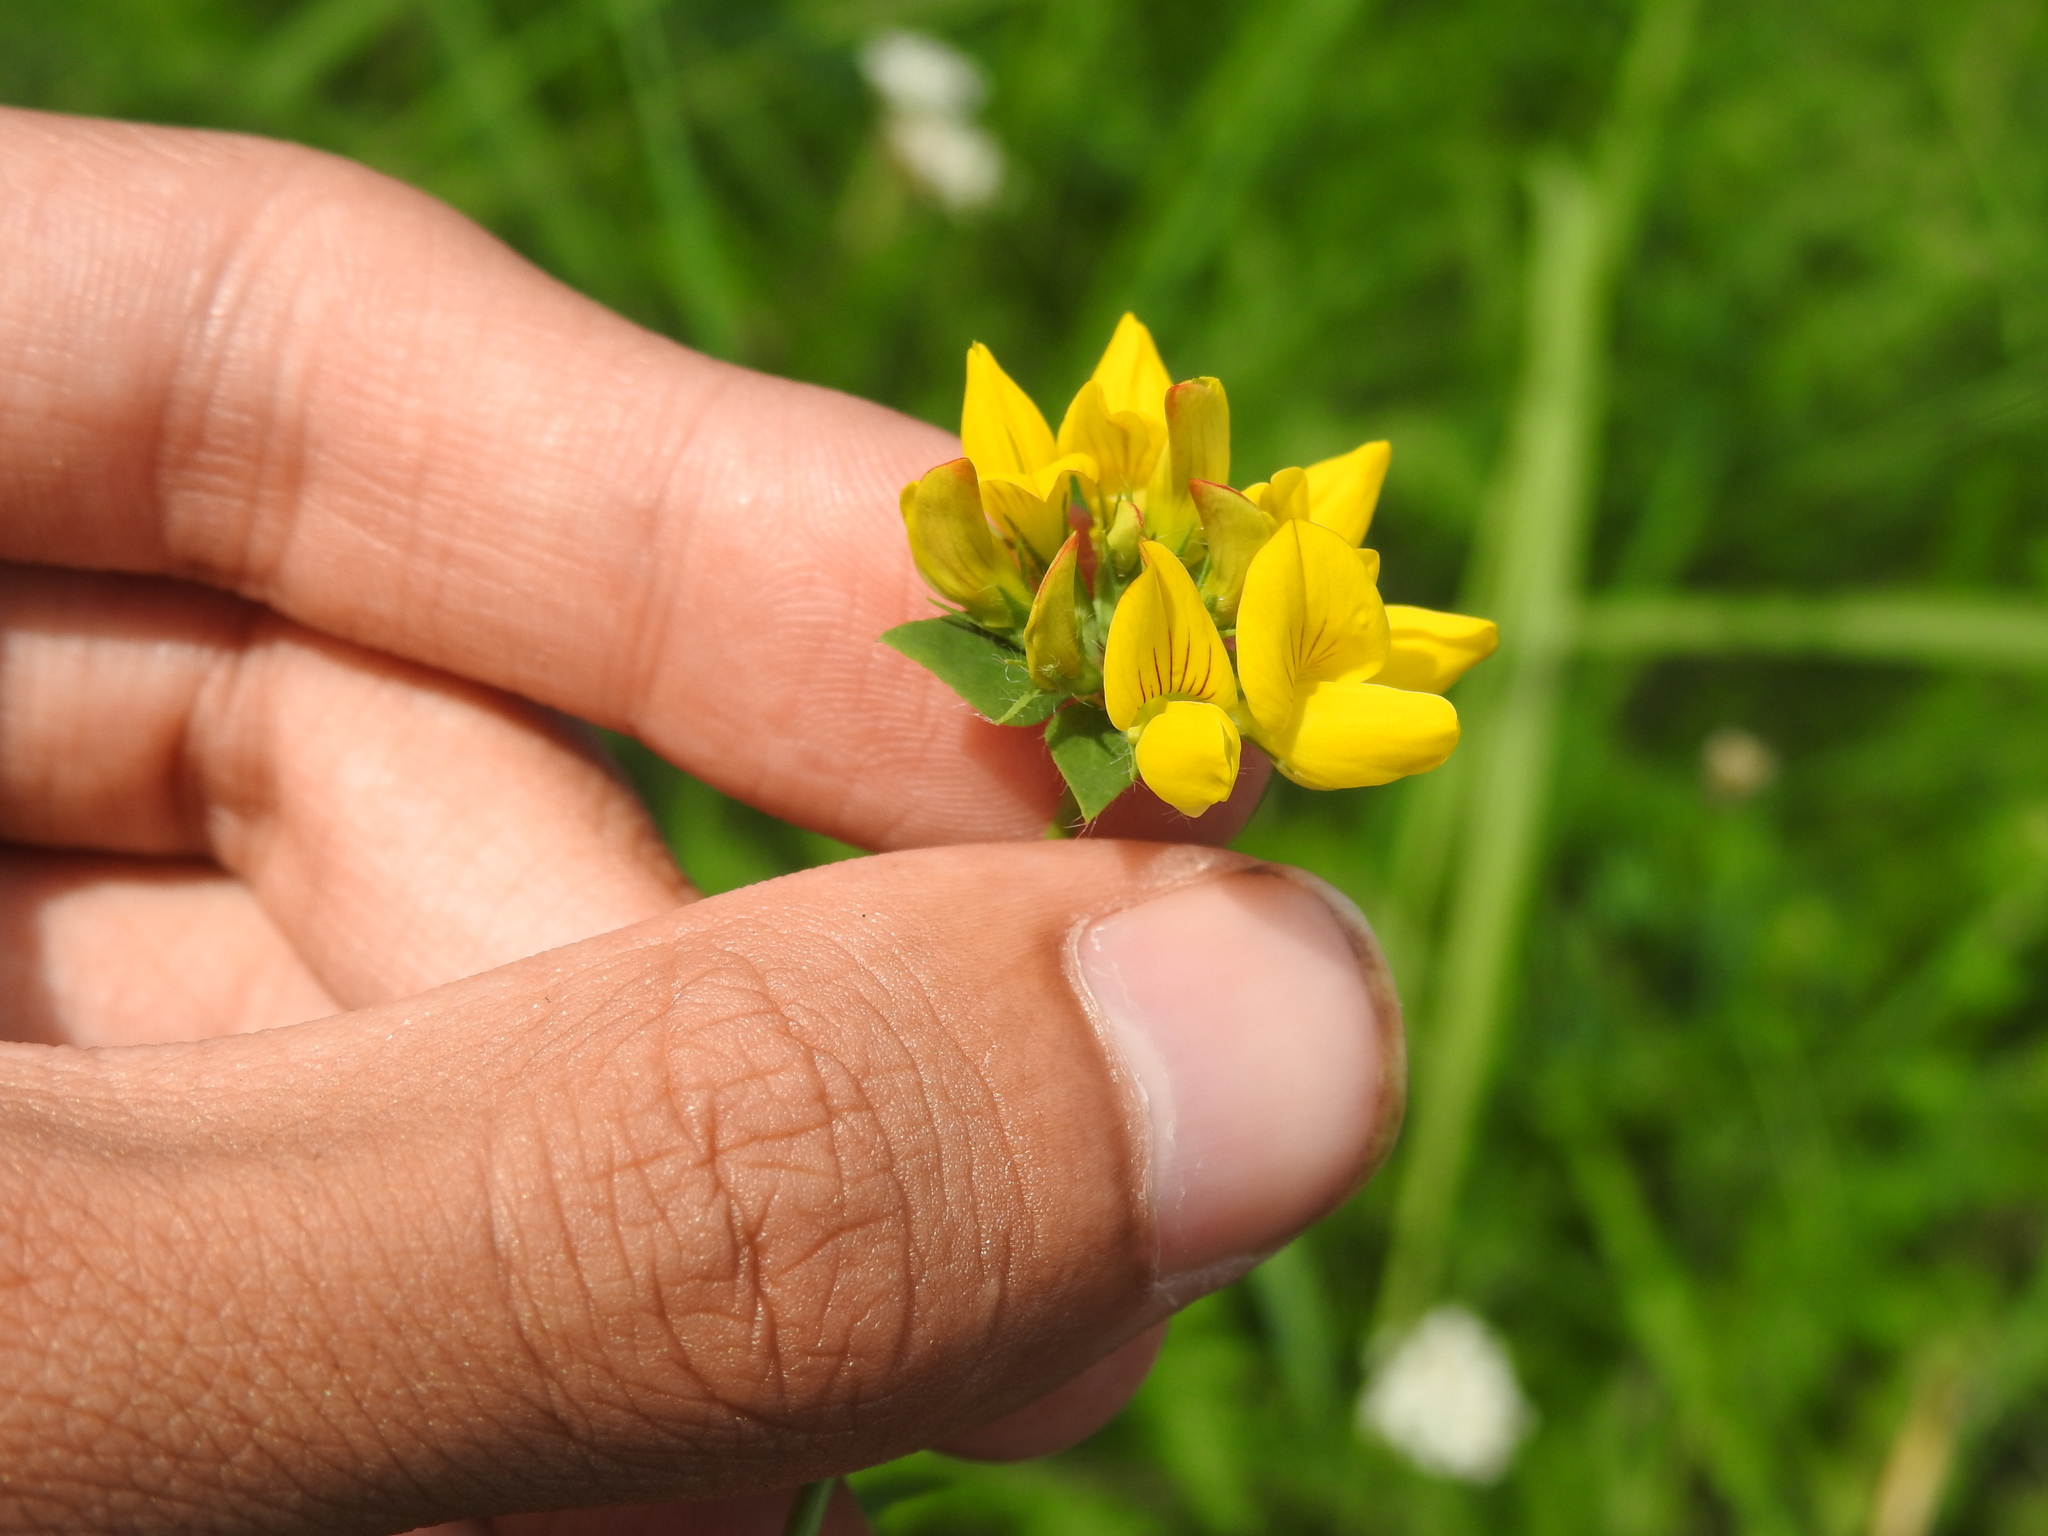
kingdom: Plantae
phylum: Tracheophyta
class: Magnoliopsida
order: Fabales
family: Fabaceae
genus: Lotus
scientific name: Lotus pedunculatus
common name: Greater birdsfoot-trefoil
